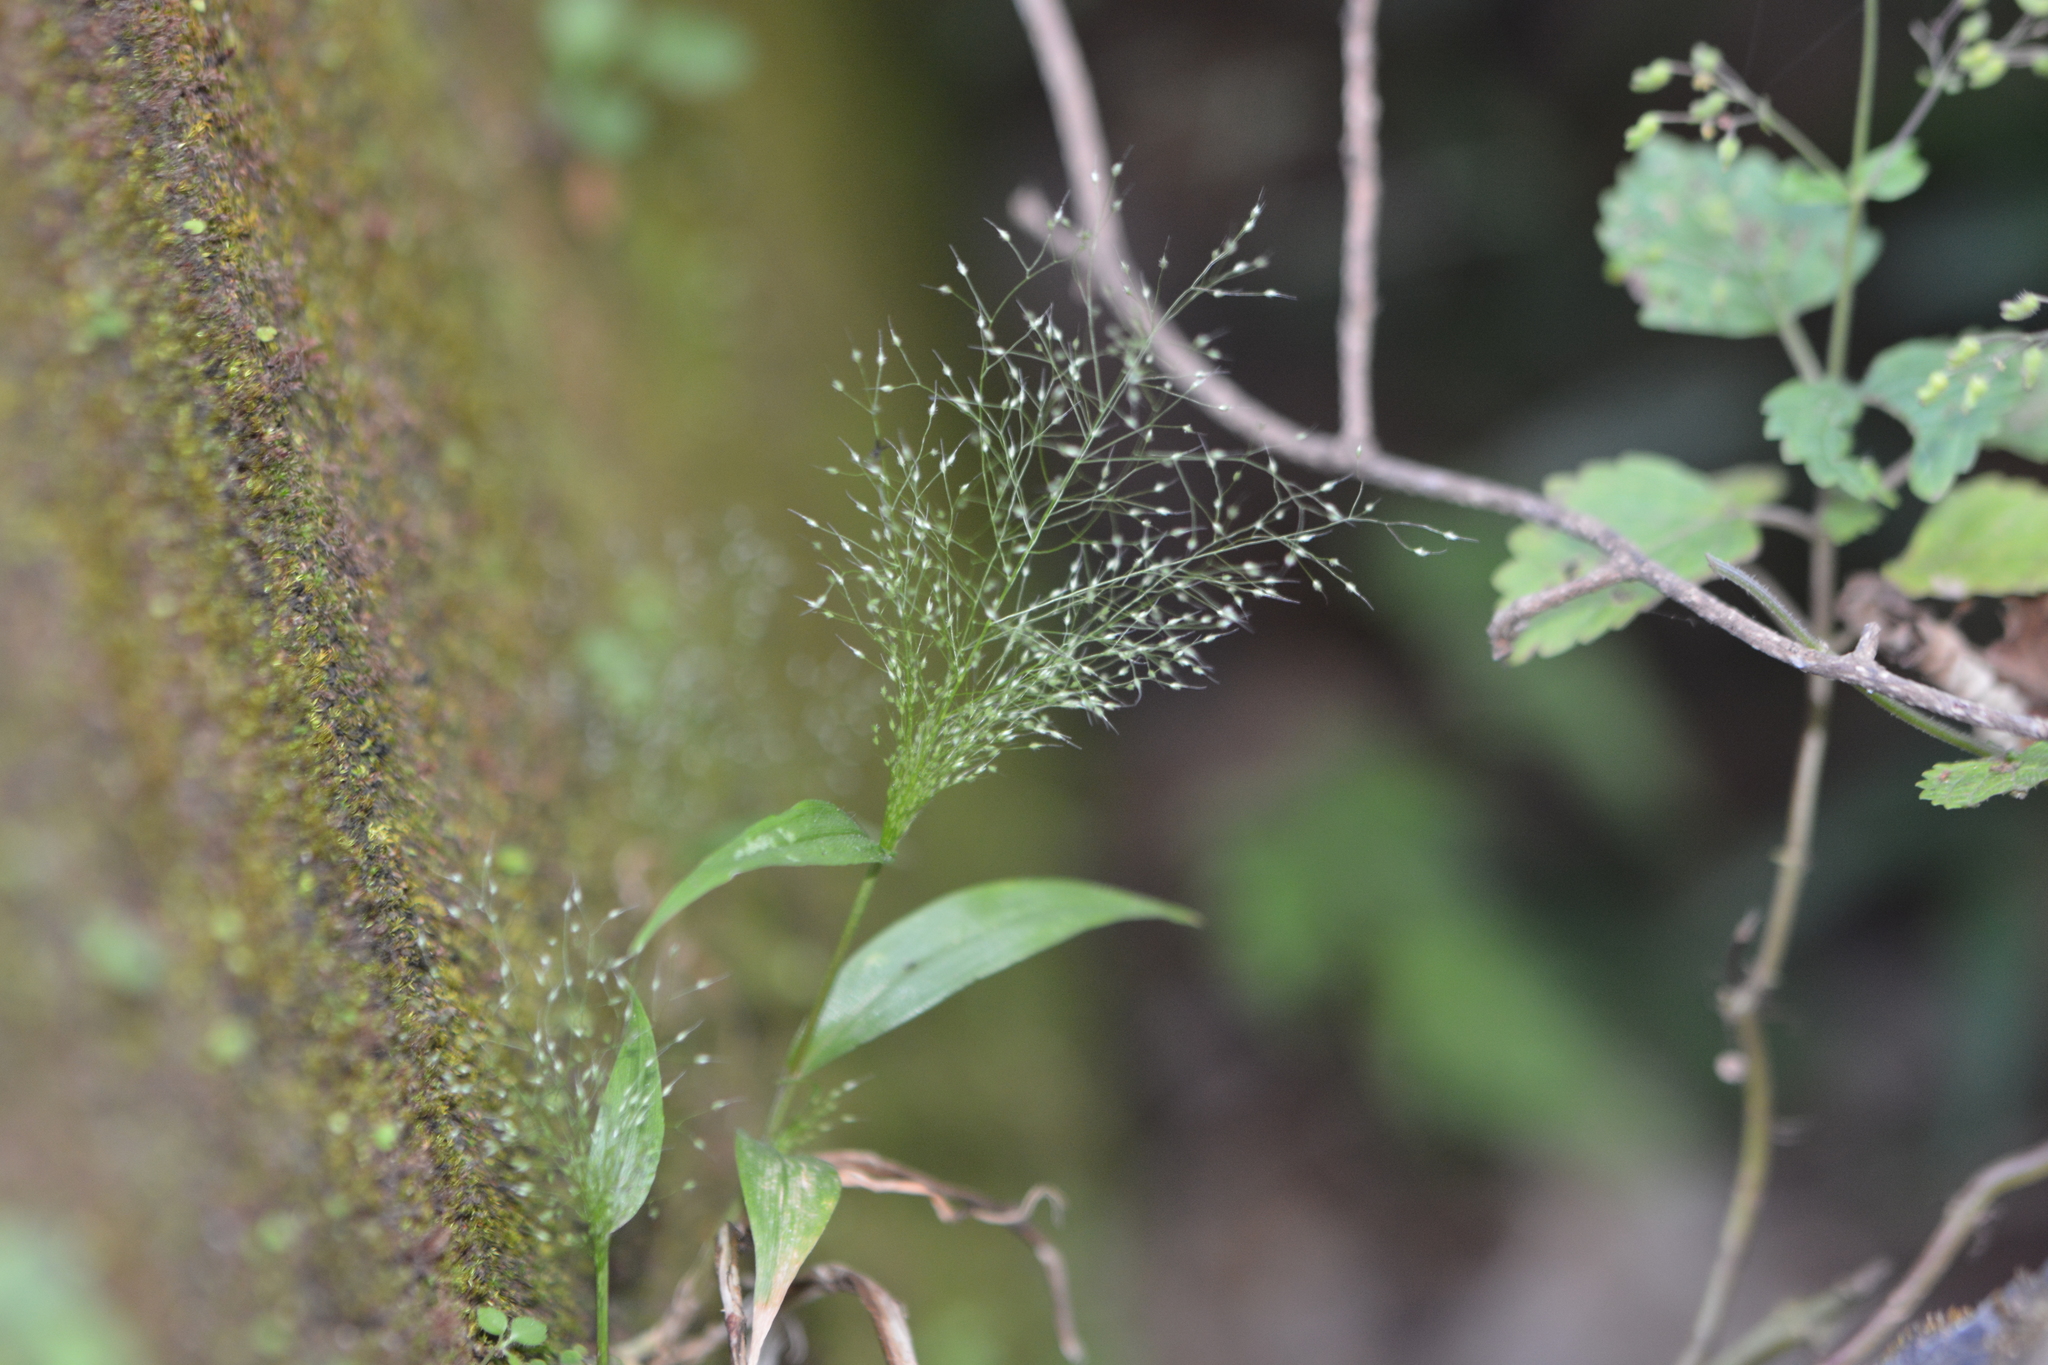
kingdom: Plantae
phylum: Tracheophyta
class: Liliopsida
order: Poales
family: Poaceae
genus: Arundinella
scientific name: Arundinella pumila
